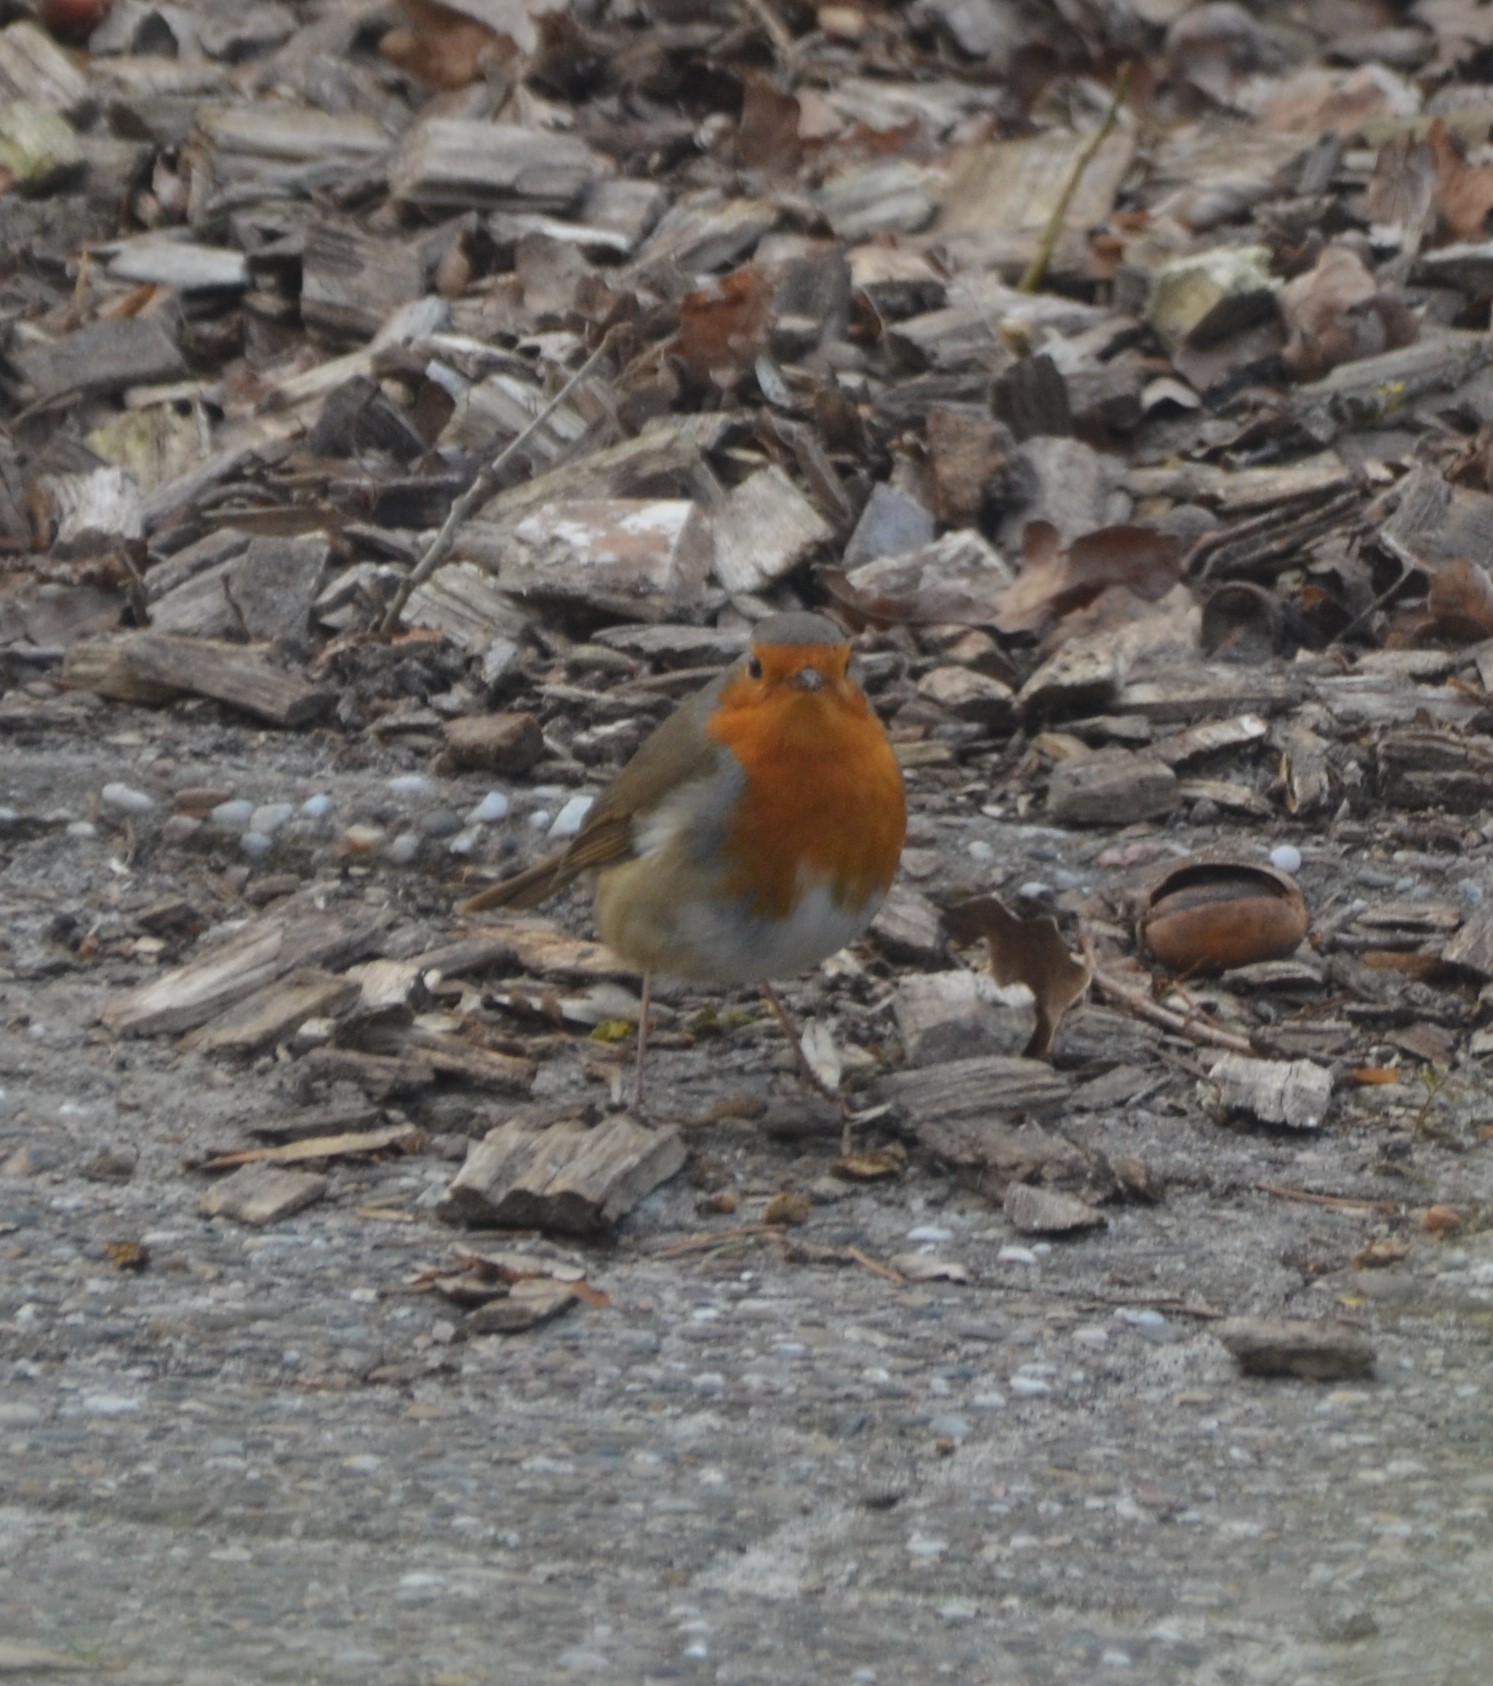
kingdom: Animalia
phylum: Chordata
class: Aves
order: Passeriformes
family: Muscicapidae
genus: Erithacus
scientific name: Erithacus rubecula
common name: European robin
